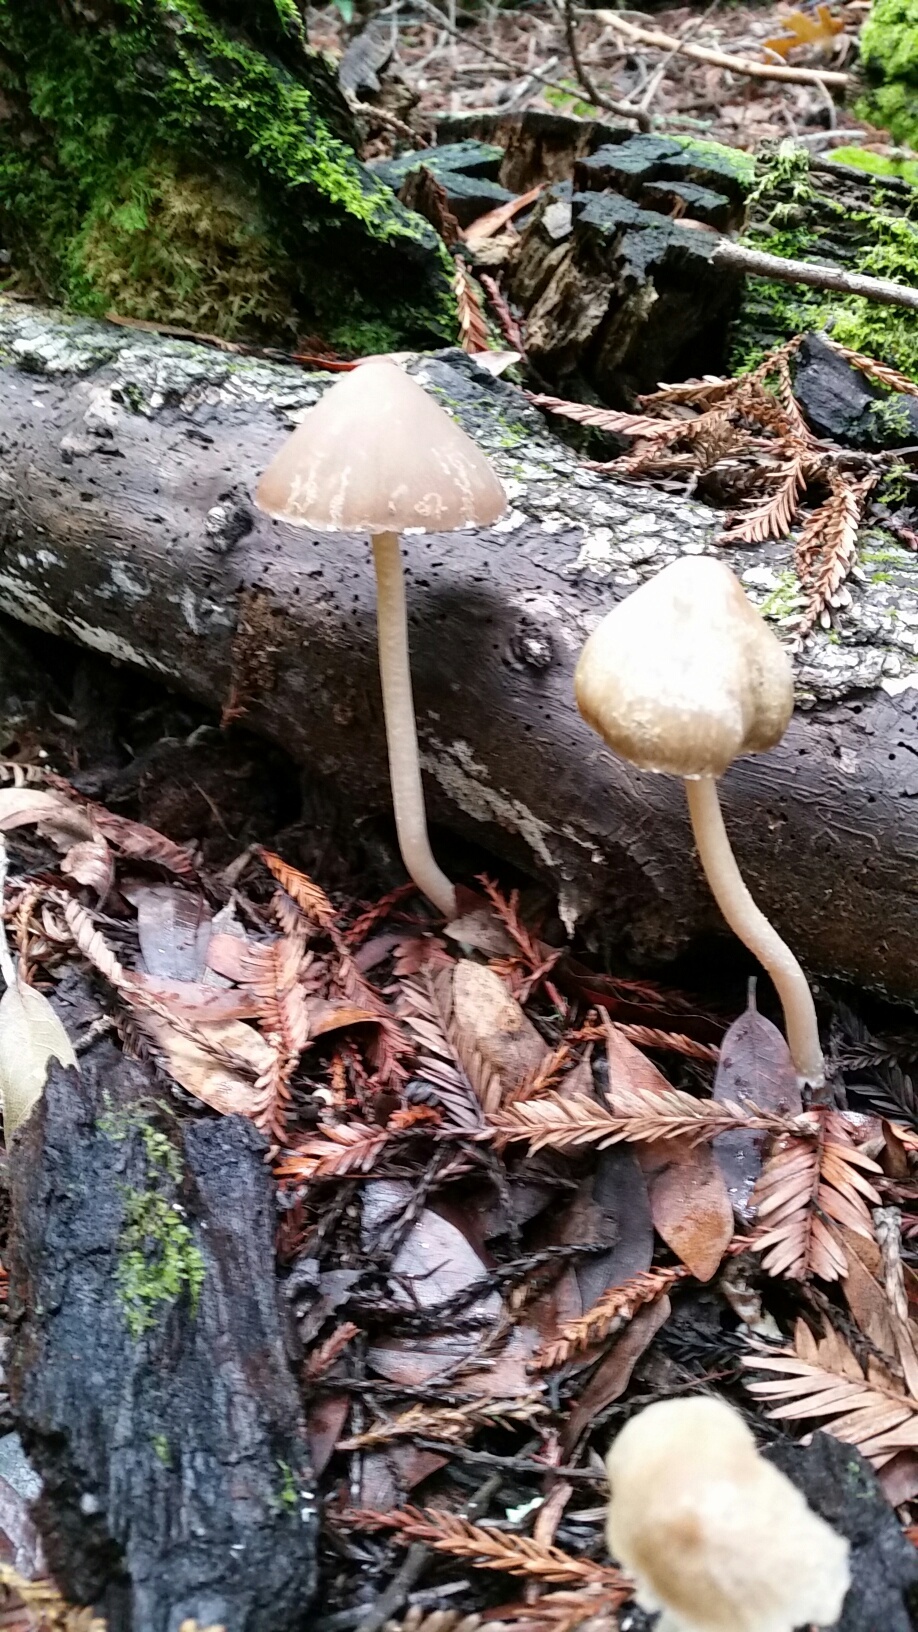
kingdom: Fungi
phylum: Basidiomycota
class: Agaricomycetes
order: Agaricales
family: Psathyrellaceae
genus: Psathyrella
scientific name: Psathyrella longipes
